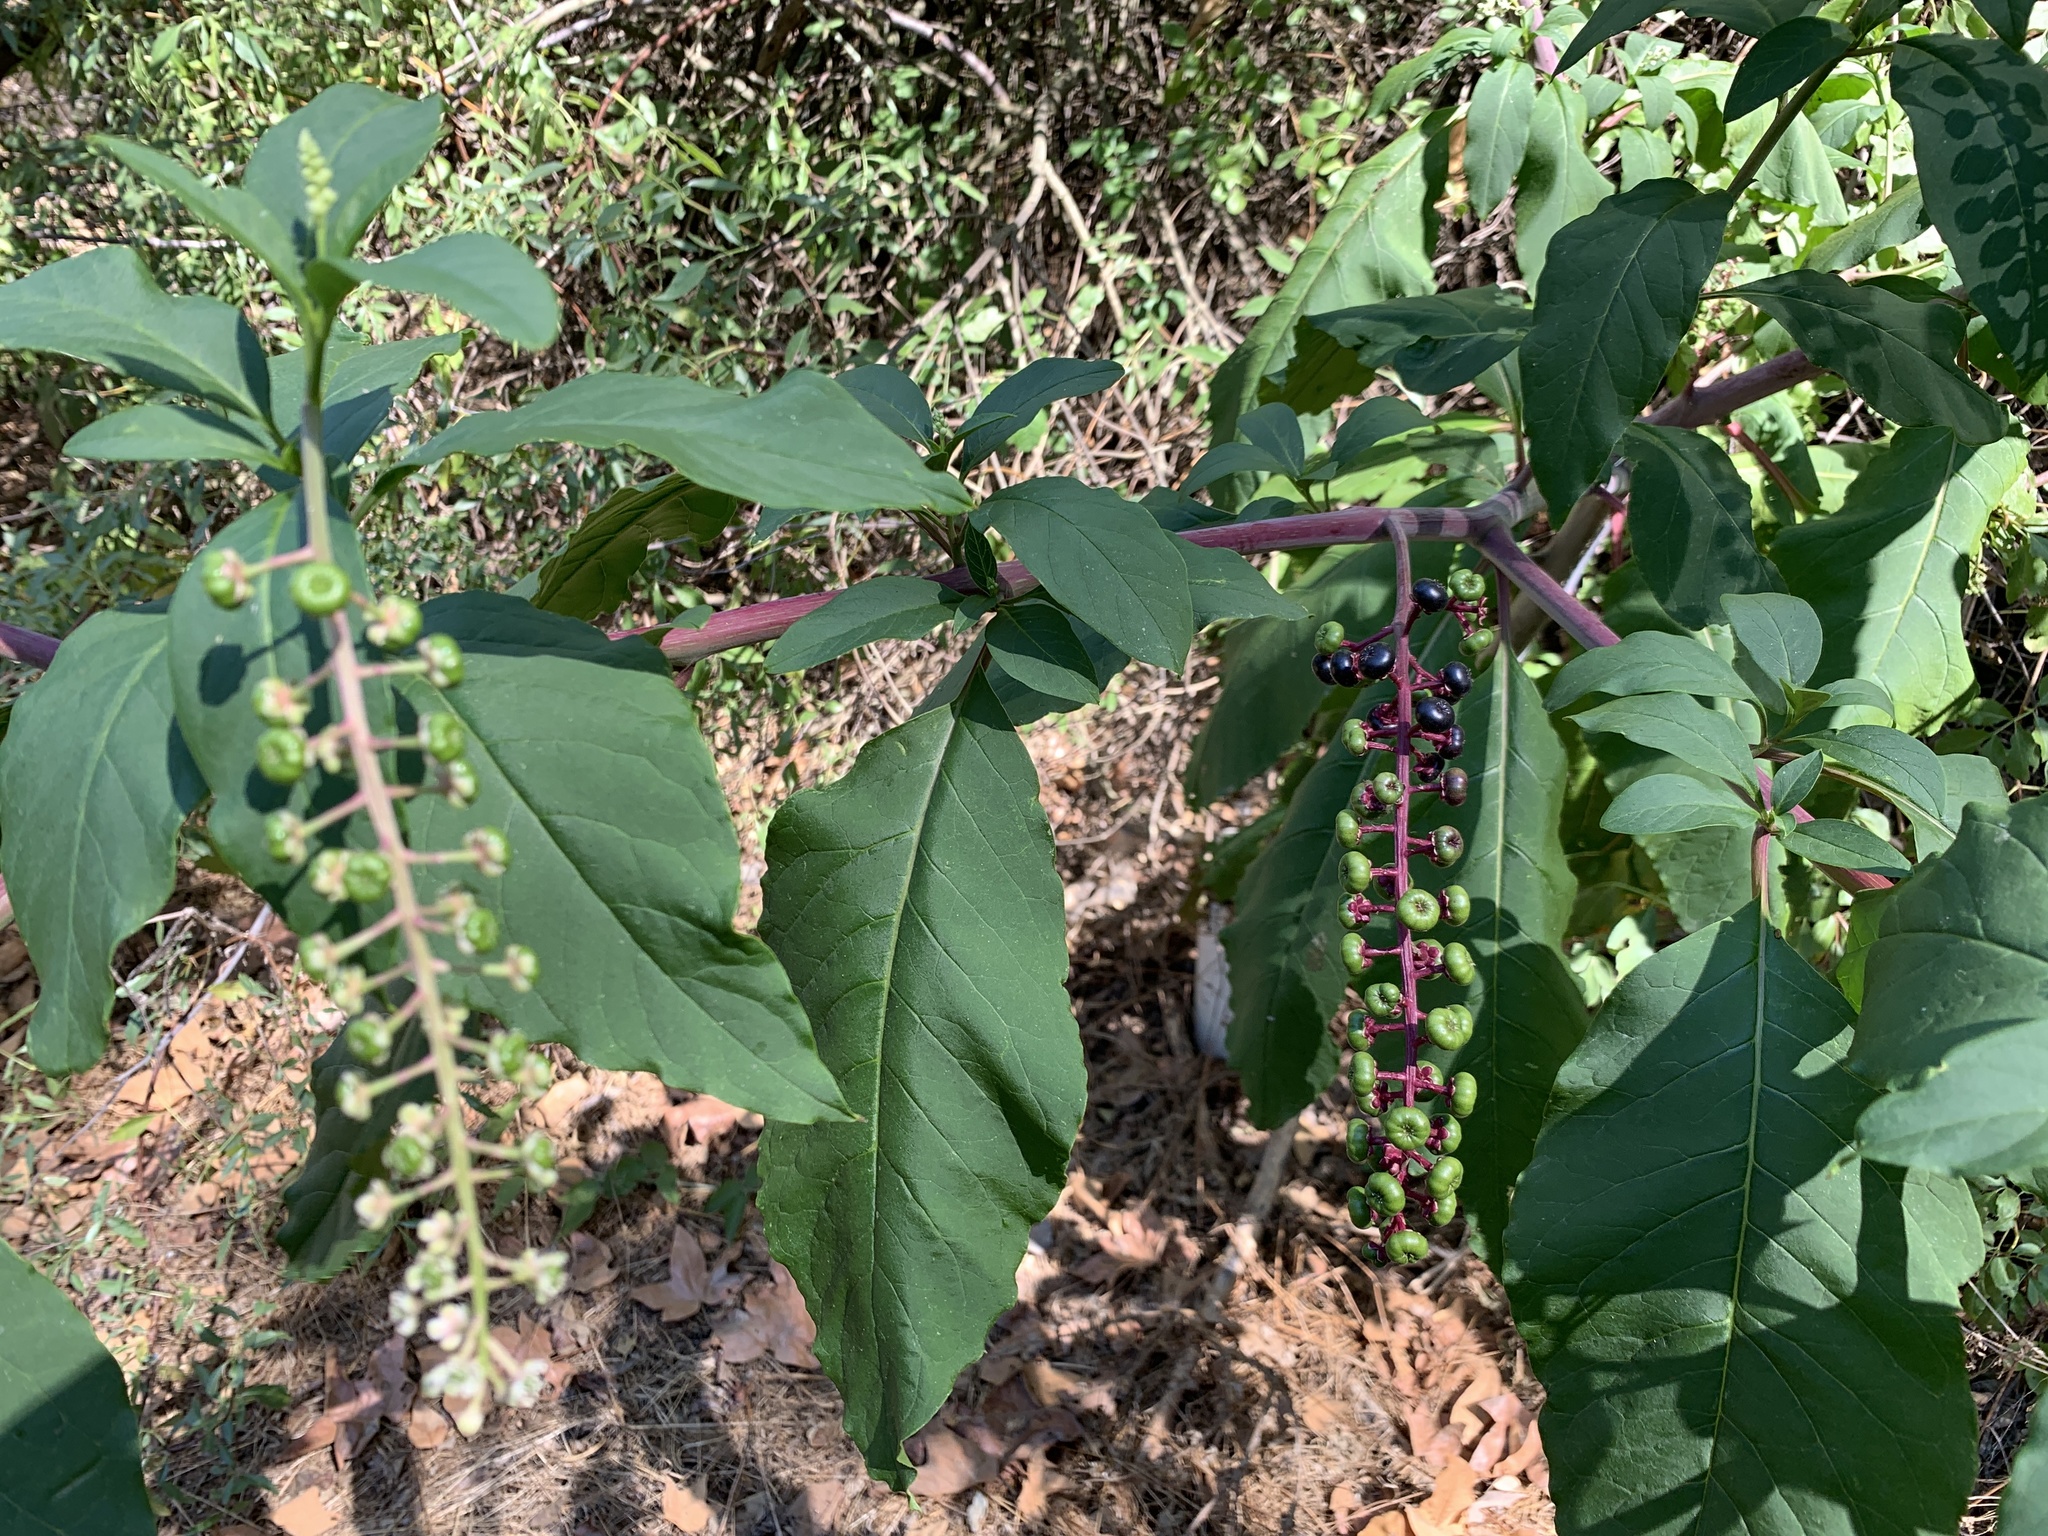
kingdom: Plantae
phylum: Tracheophyta
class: Magnoliopsida
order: Caryophyllales
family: Phytolaccaceae
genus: Phytolacca
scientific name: Phytolacca americana
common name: American pokeweed
